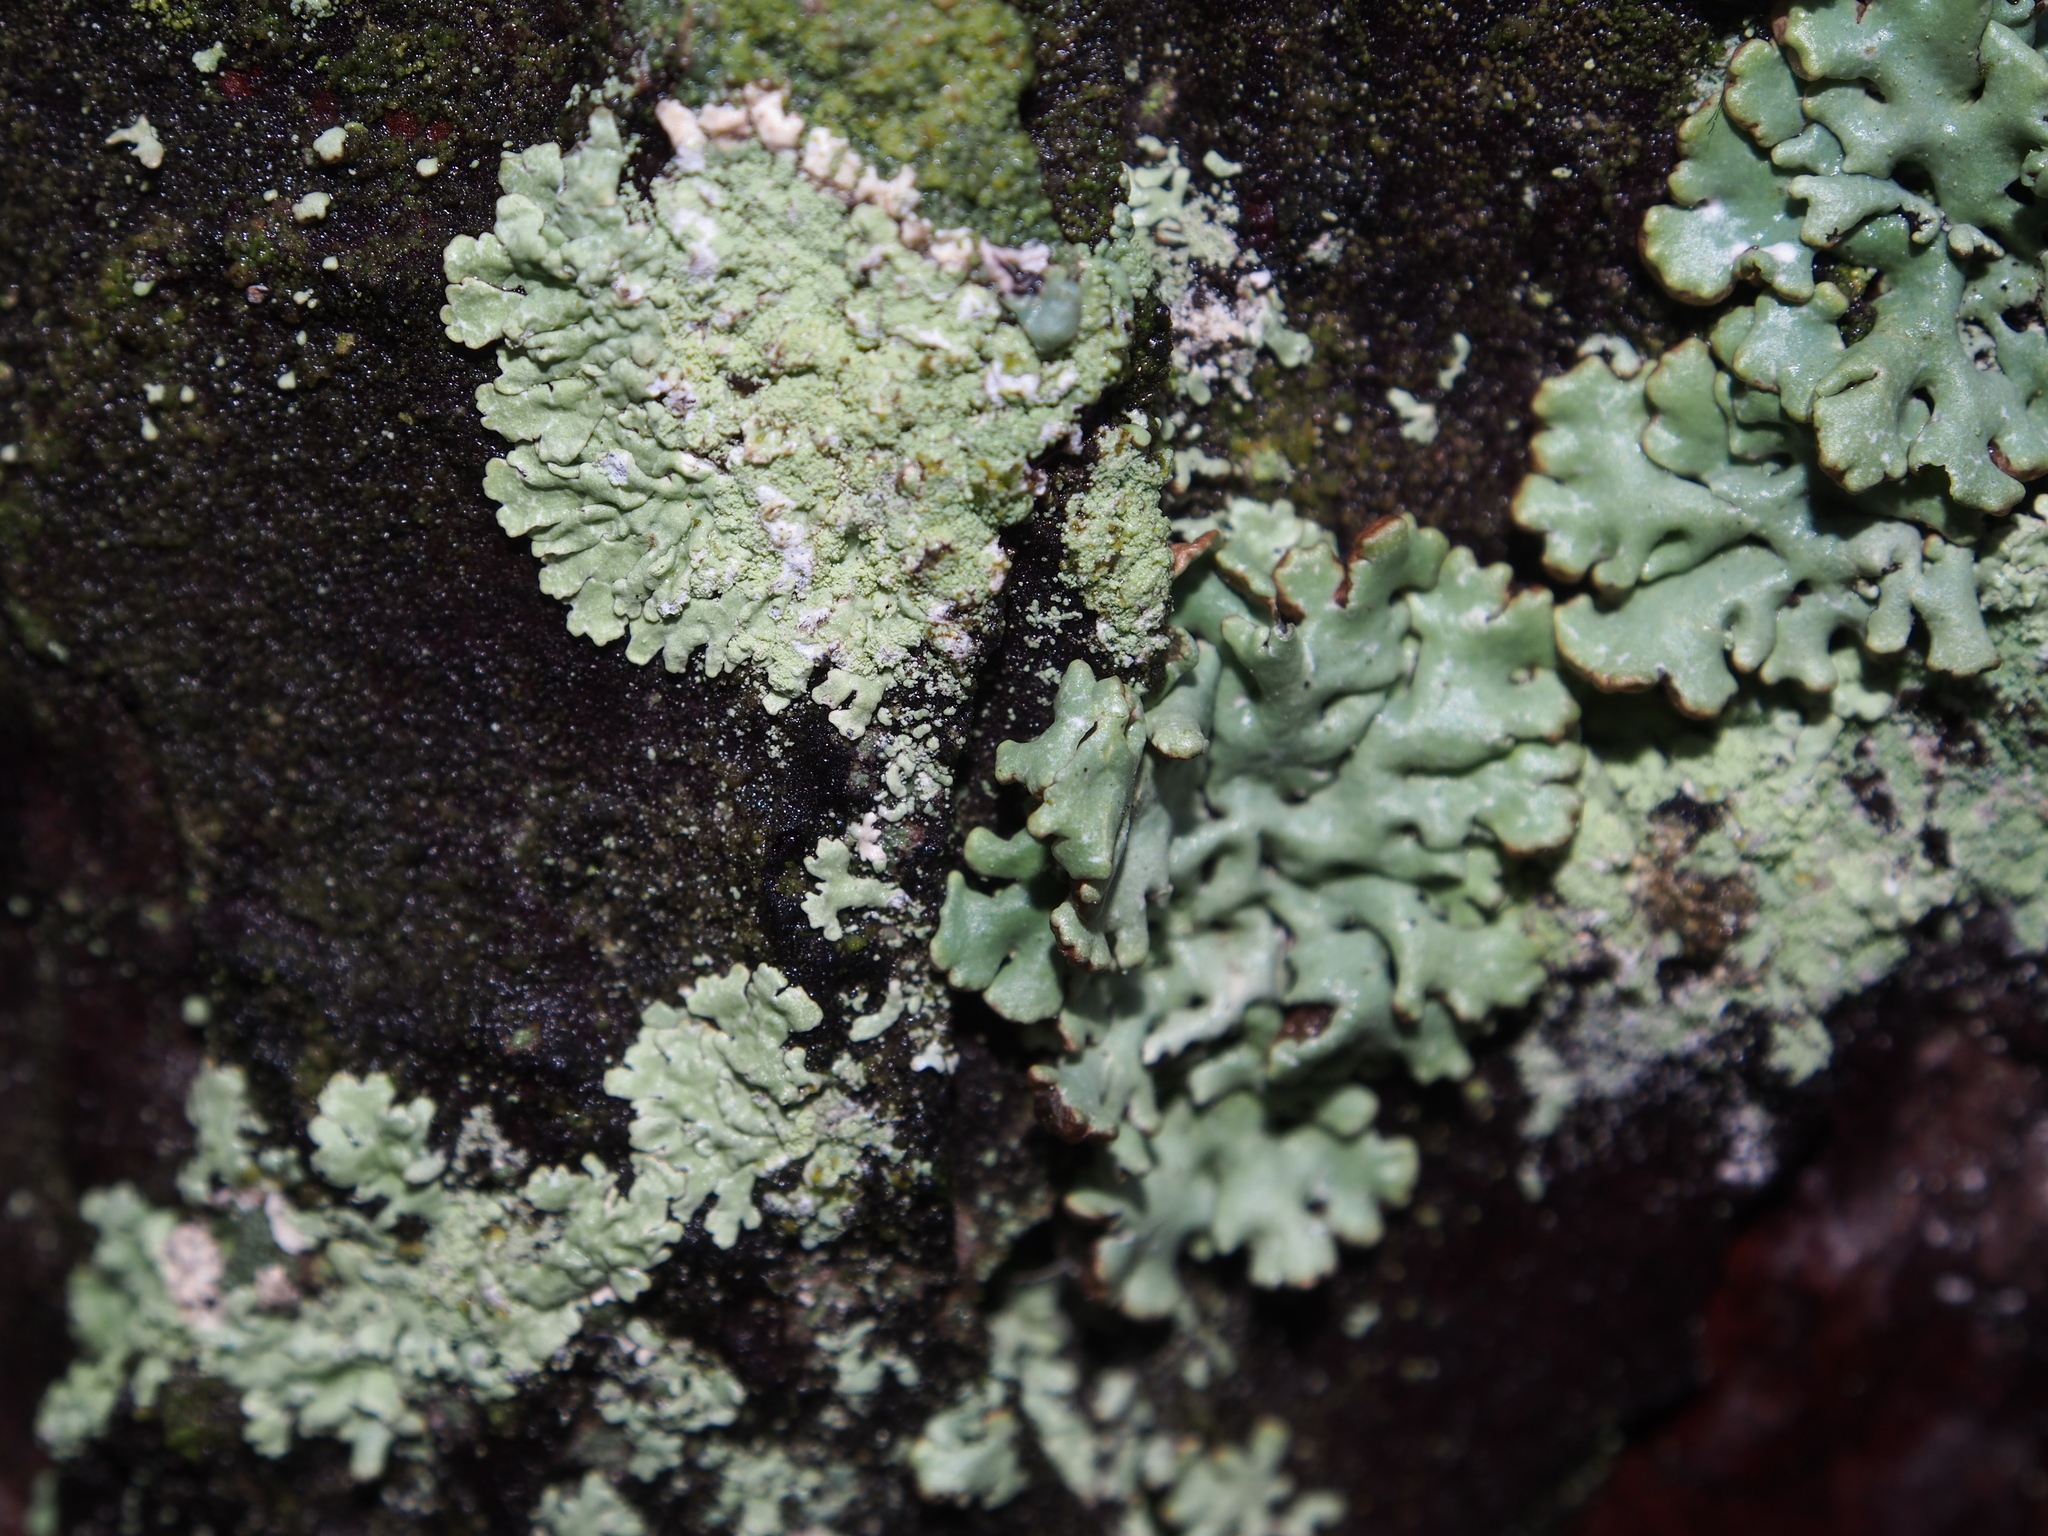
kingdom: Fungi
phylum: Ascomycota
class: Lecanoromycetes
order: Lecanorales
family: Parmeliaceae
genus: Parmeliopsis
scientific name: Parmeliopsis ambigua
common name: Green starburst lichen
